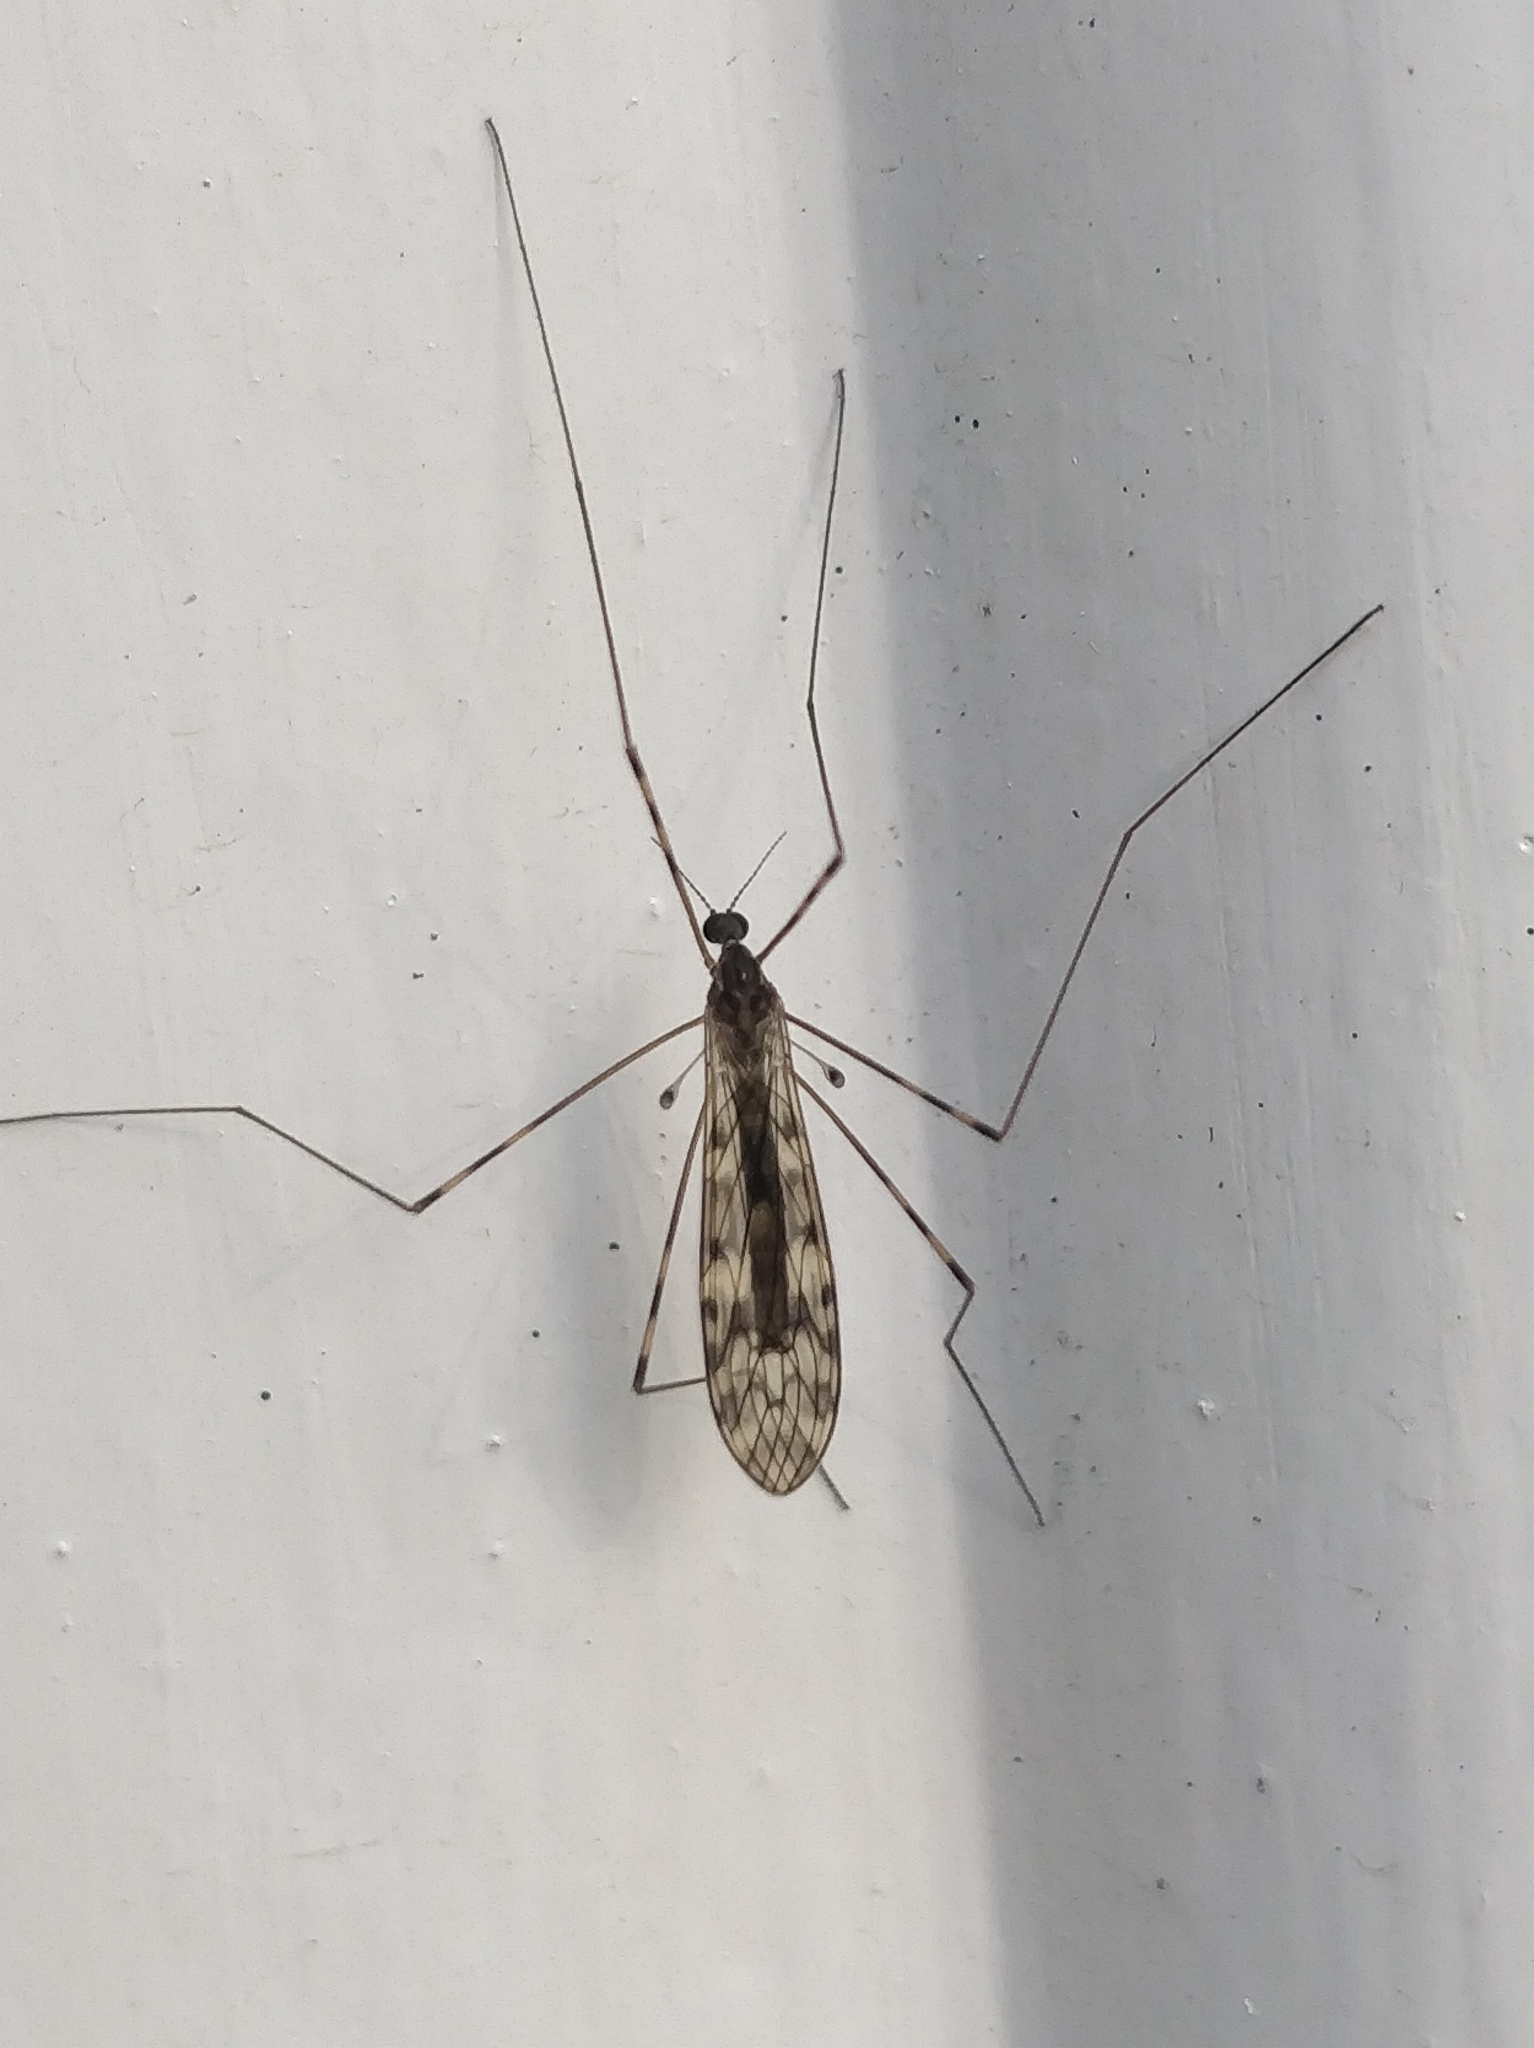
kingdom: Animalia
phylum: Arthropoda
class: Insecta
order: Diptera
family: Limoniidae
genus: Limonia
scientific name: Limonia nubeculosa
